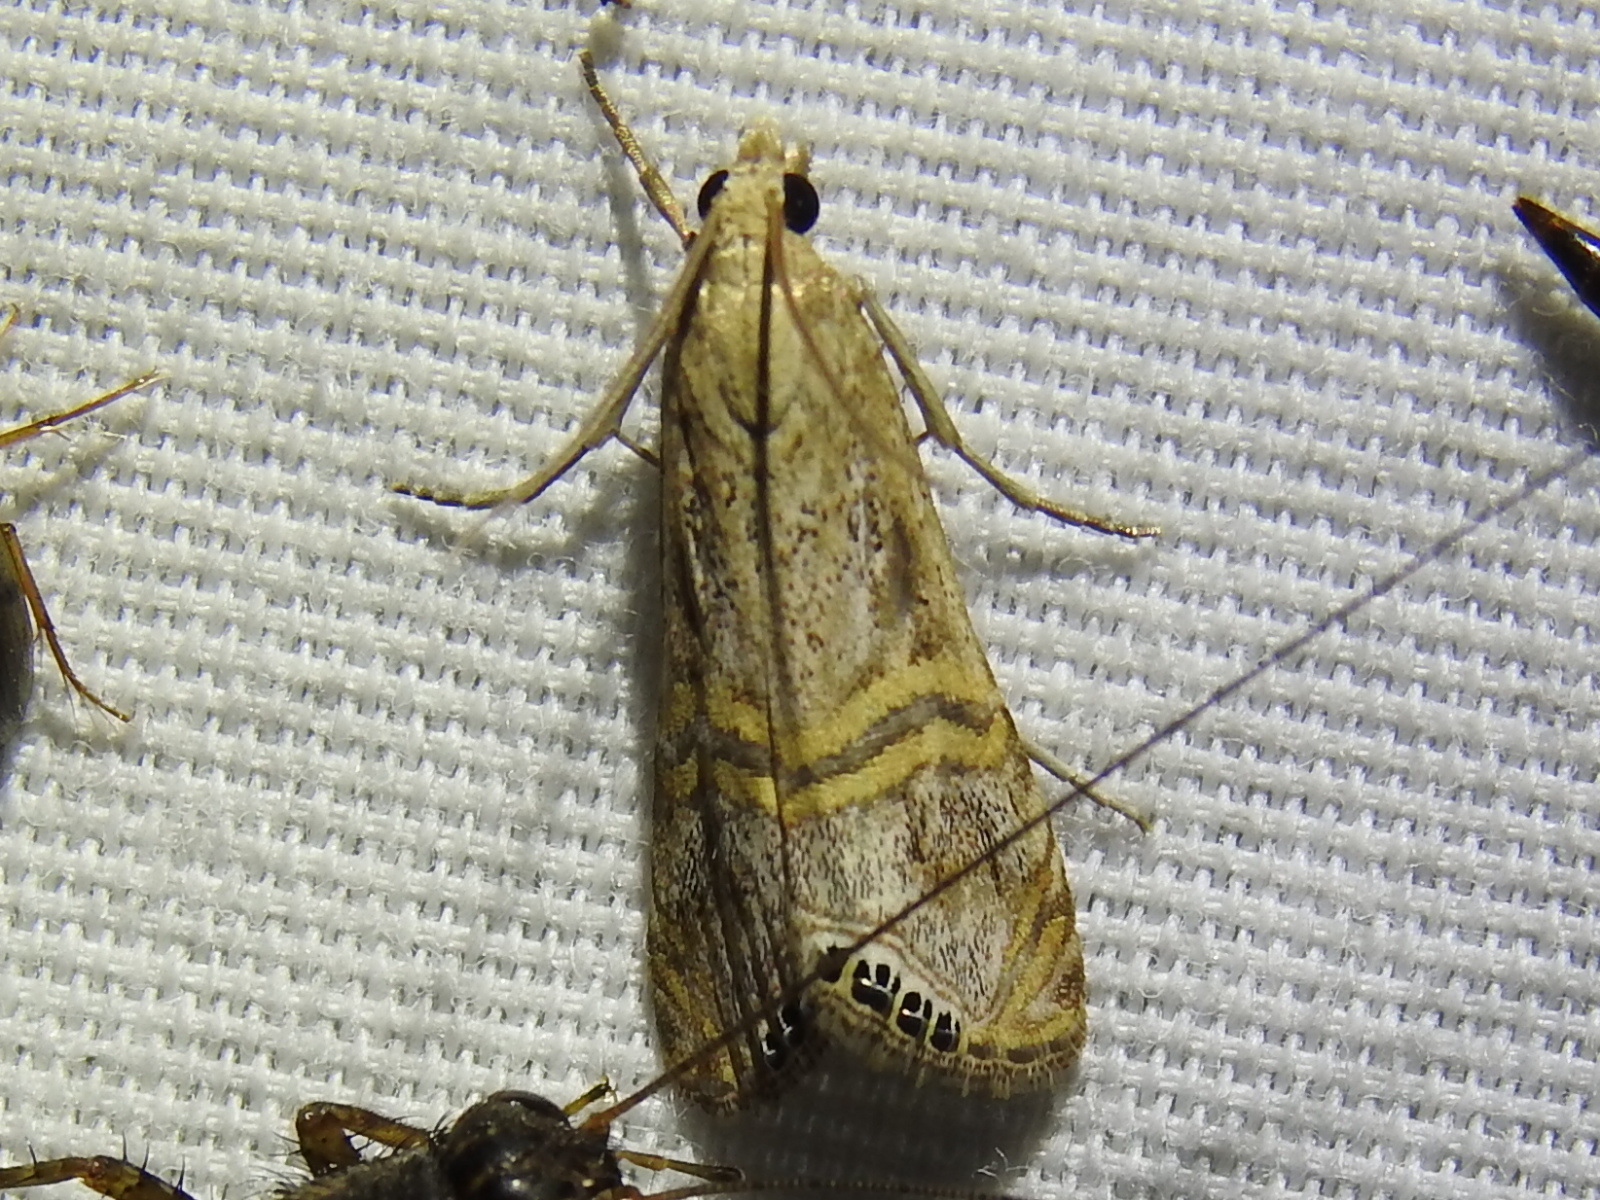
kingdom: Animalia
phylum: Arthropoda
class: Insecta
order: Lepidoptera
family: Crambidae
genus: Euchromius
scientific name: Euchromius ocellea
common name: Necklace veneer moth
